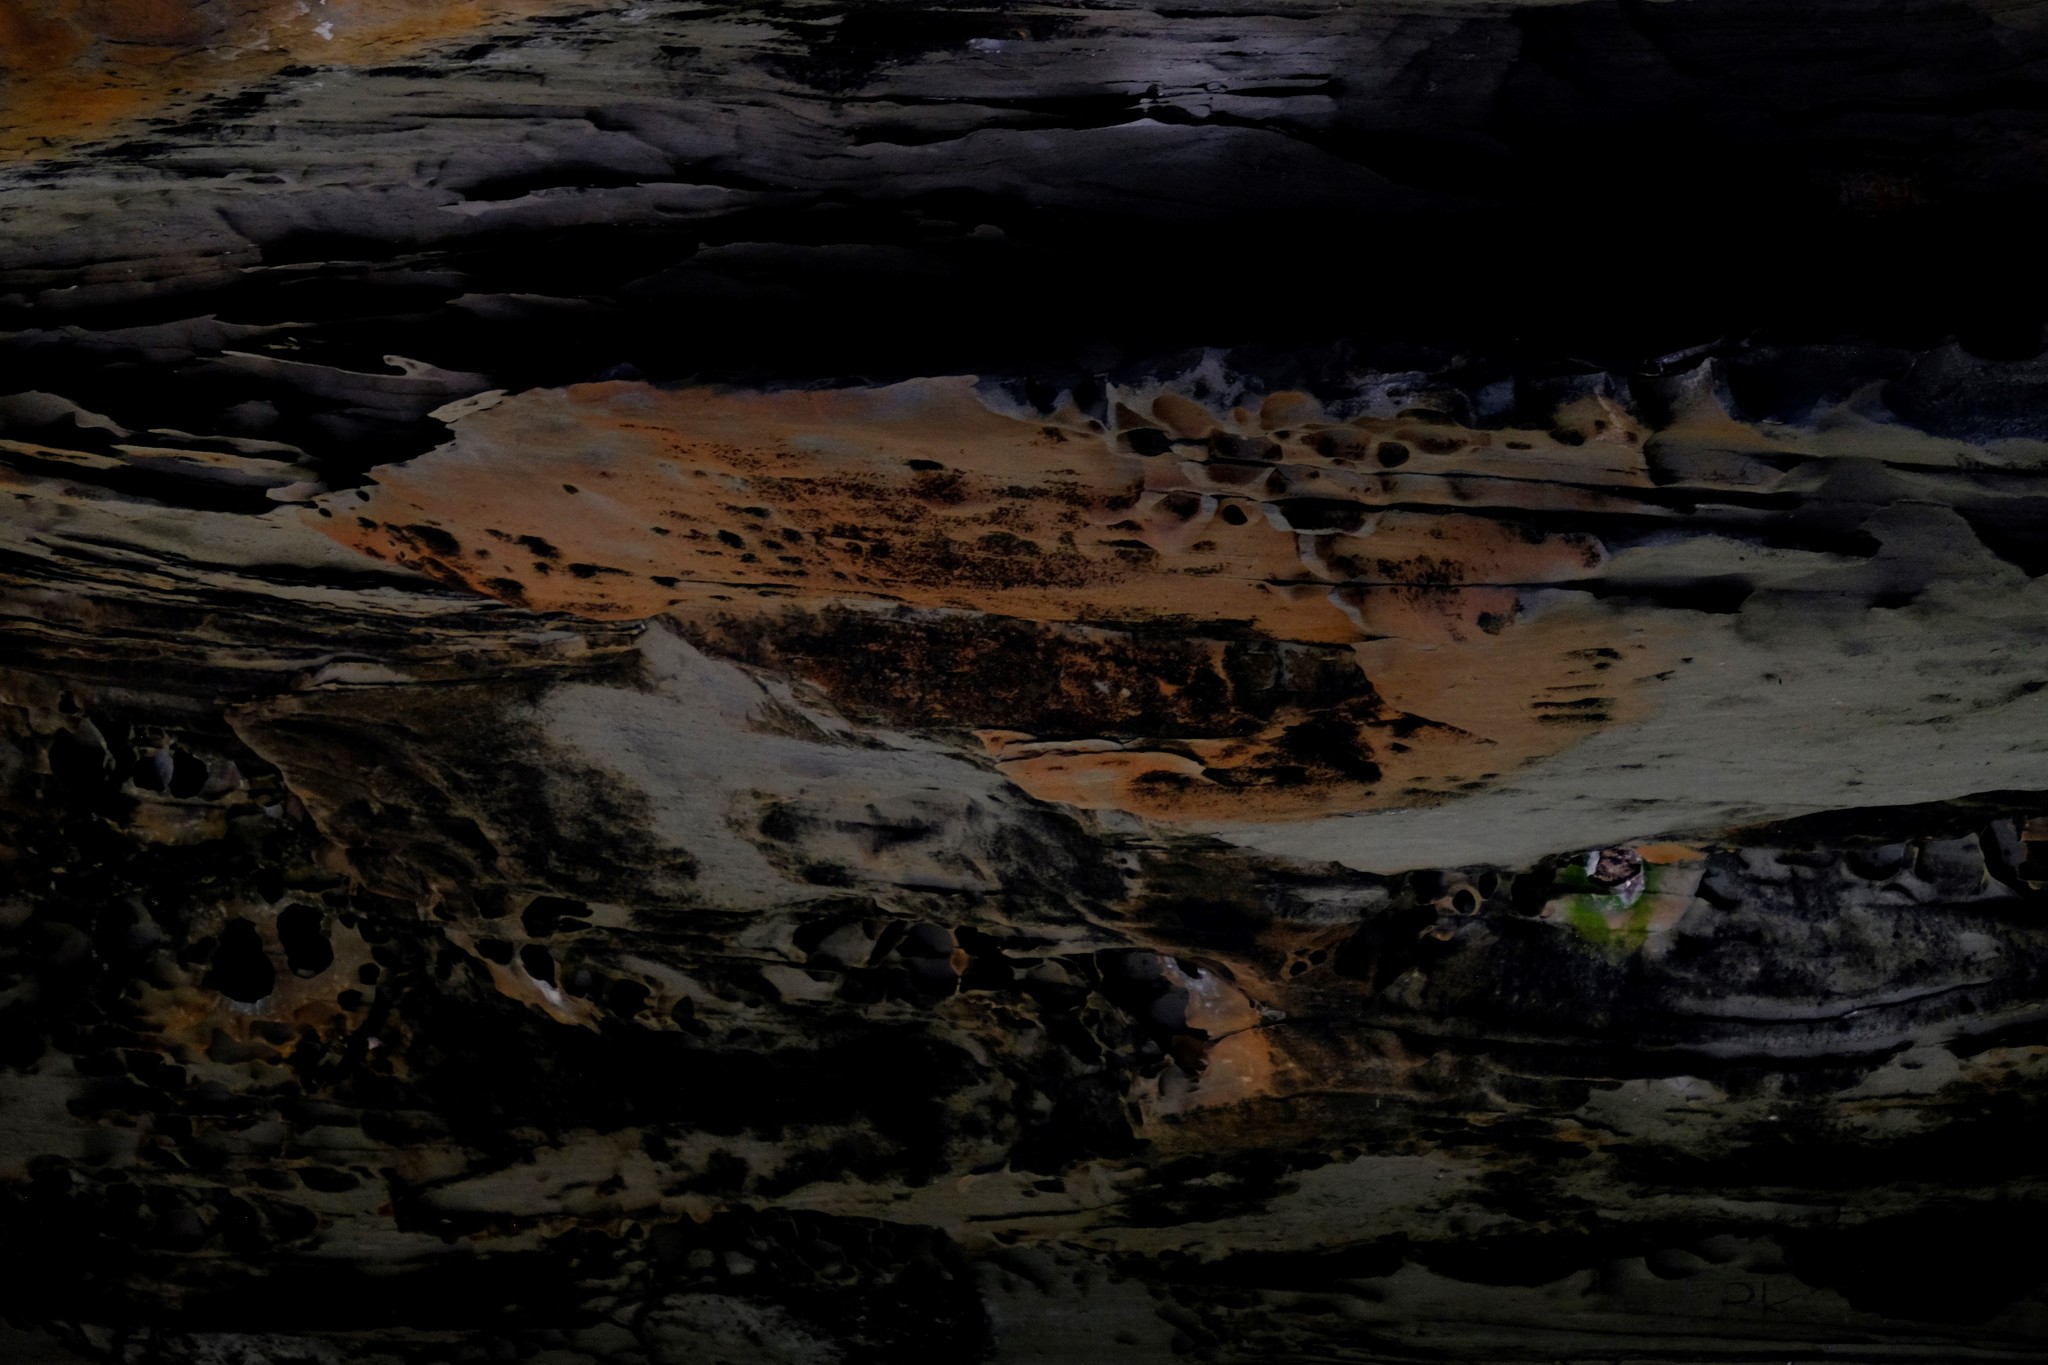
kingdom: Animalia
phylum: Chordata
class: Aves
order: Passeriformes
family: Hirundinidae
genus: Petrochelidon
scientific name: Petrochelidon nigricans
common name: Tree martin
